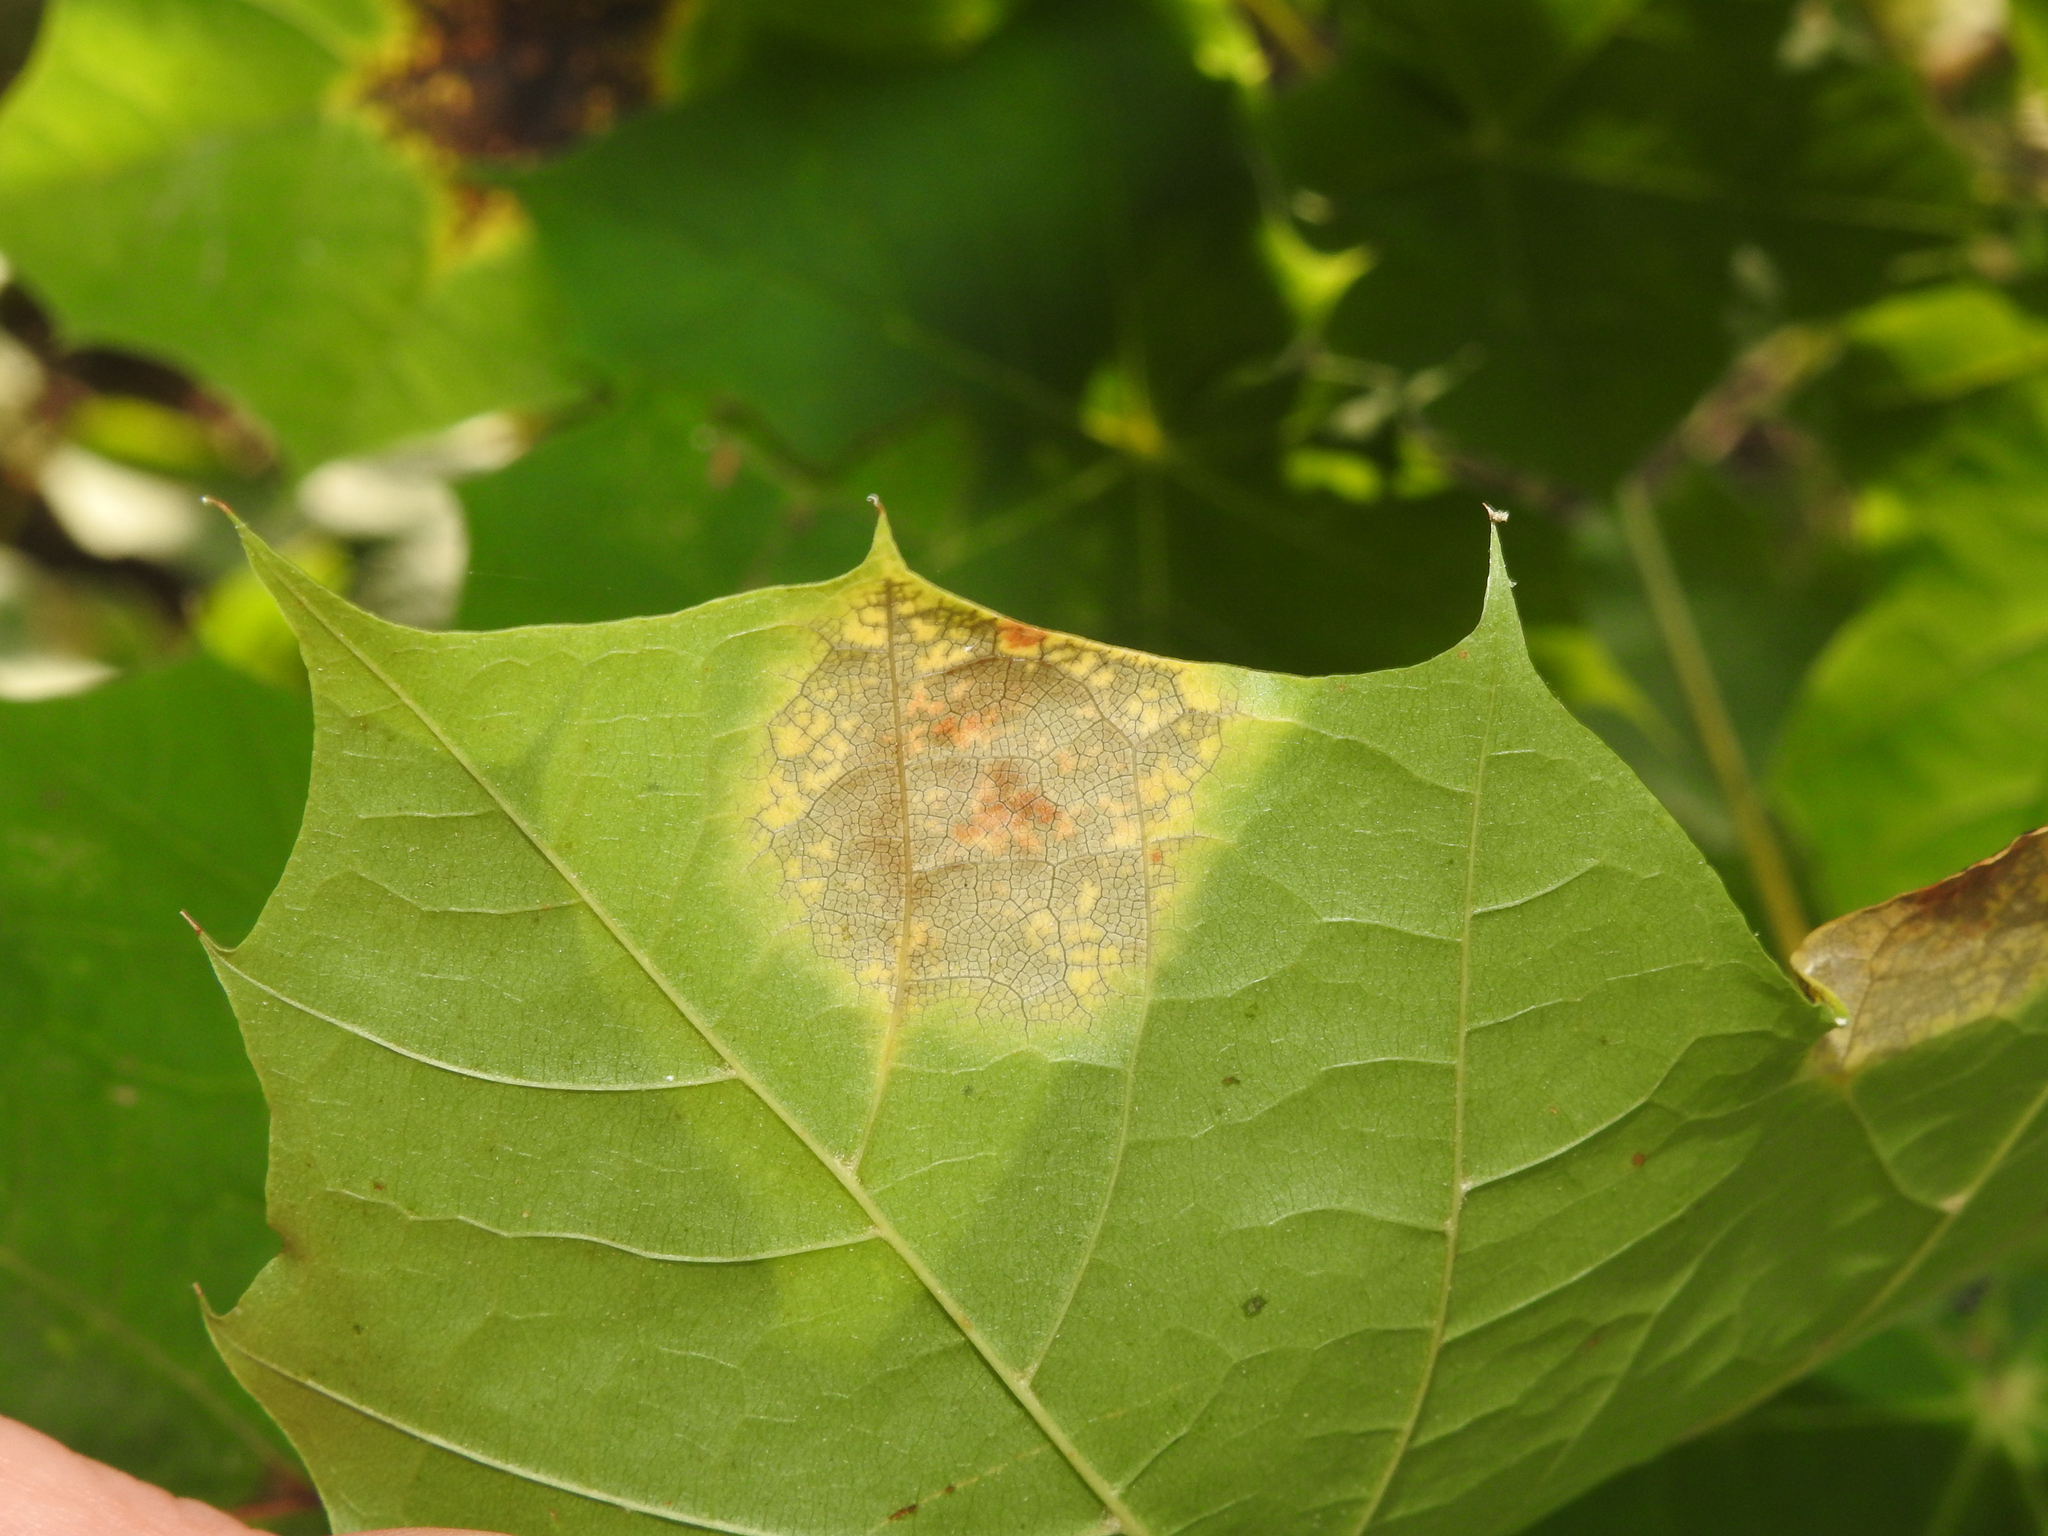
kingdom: Fungi
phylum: Ascomycota
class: Leotiomycetes
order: Rhytismatales
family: Rhytismataceae
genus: Rhytisma
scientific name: Rhytisma acerinum
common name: European tar spot
